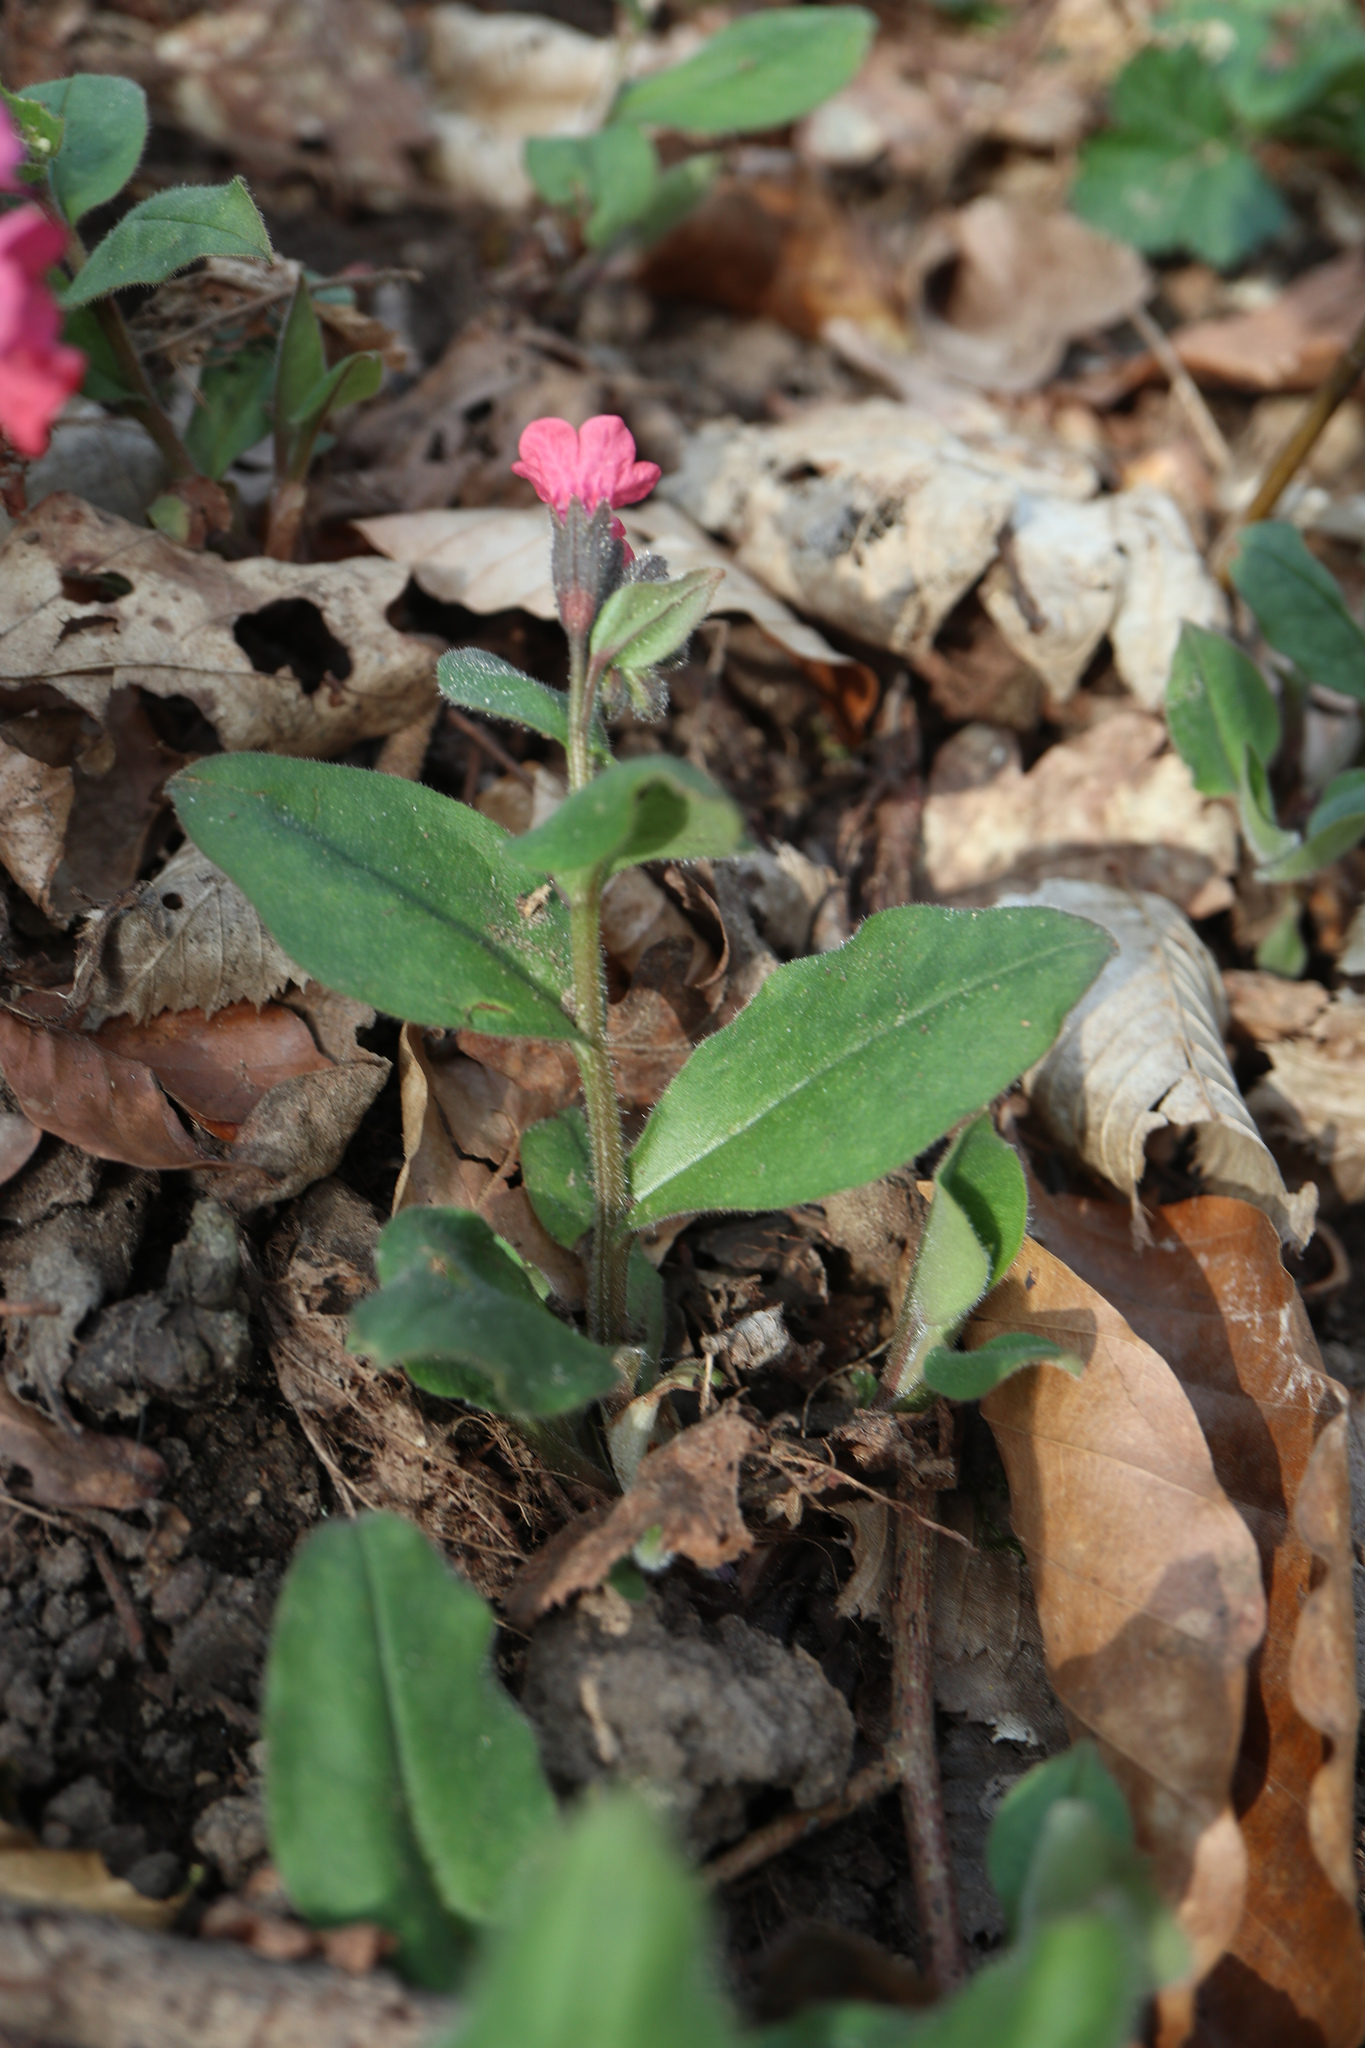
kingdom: Plantae
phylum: Tracheophyta
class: Magnoliopsida
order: Boraginales
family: Boraginaceae
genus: Pulmonaria
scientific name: Pulmonaria obscura
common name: Suffolk lungwort
